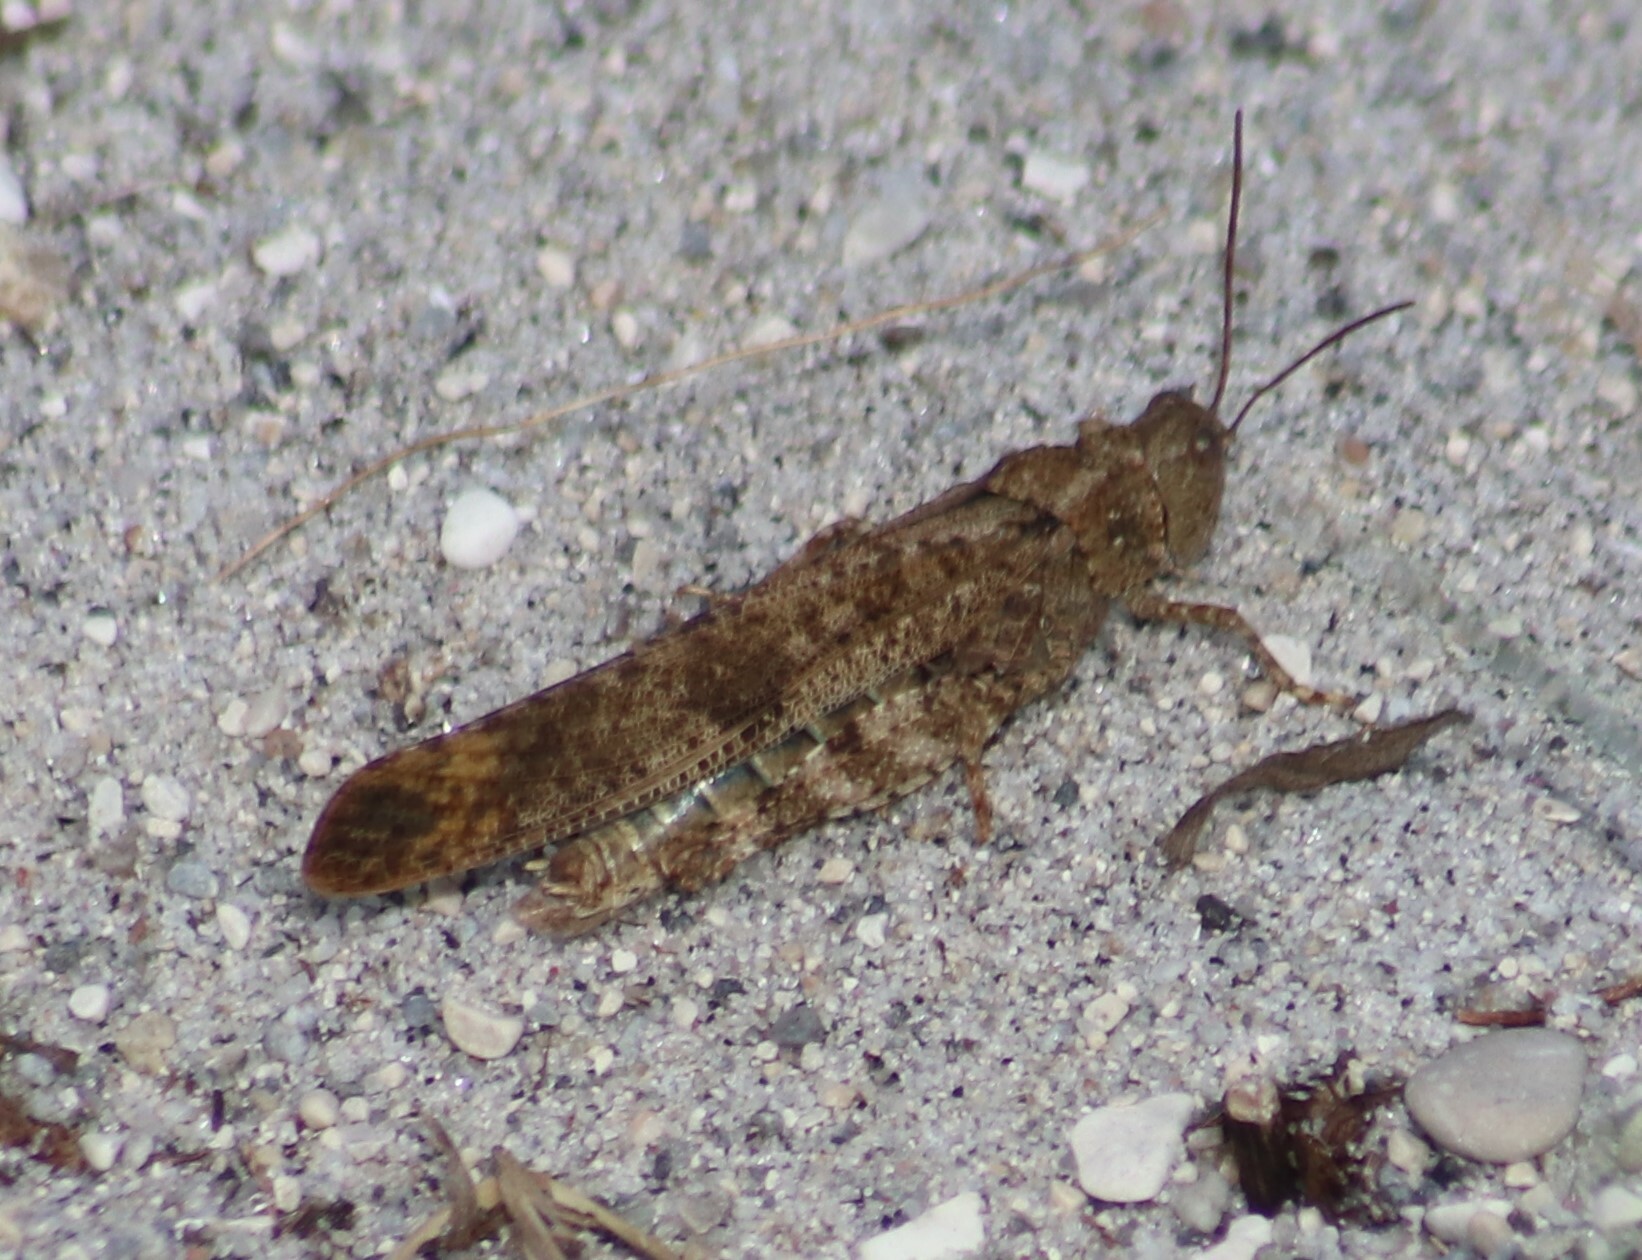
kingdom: Animalia
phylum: Arthropoda
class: Insecta
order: Orthoptera
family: Acrididae
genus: Dissosteira
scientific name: Dissosteira carolina
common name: Carolina grasshopper
